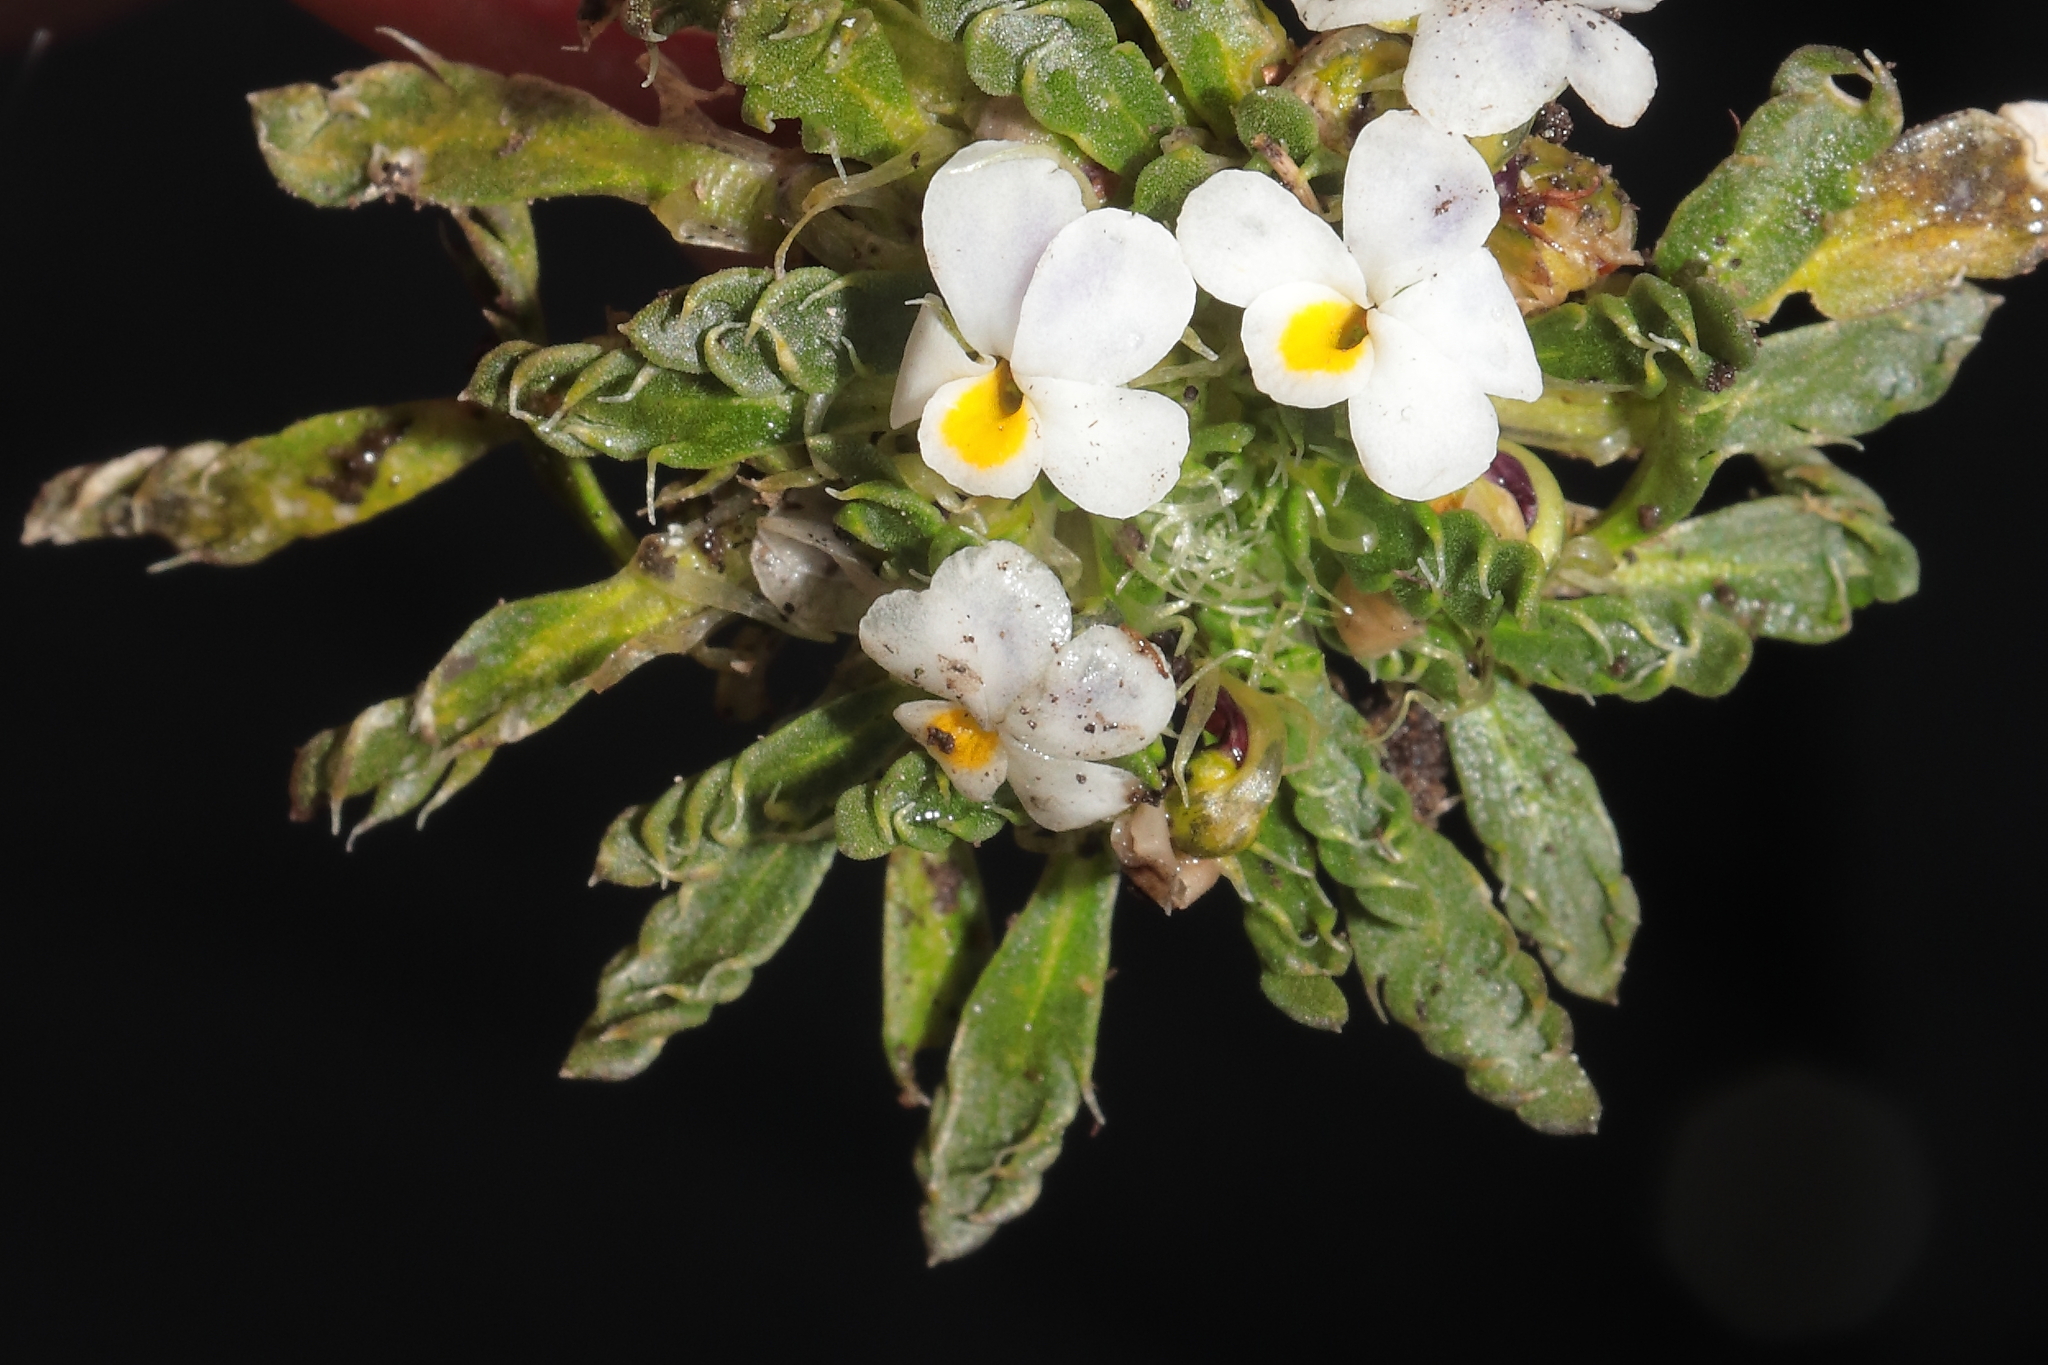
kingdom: Plantae
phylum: Tracheophyta
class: Magnoliopsida
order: Malpighiales
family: Violaceae
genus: Viola
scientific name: Viola weibelii
